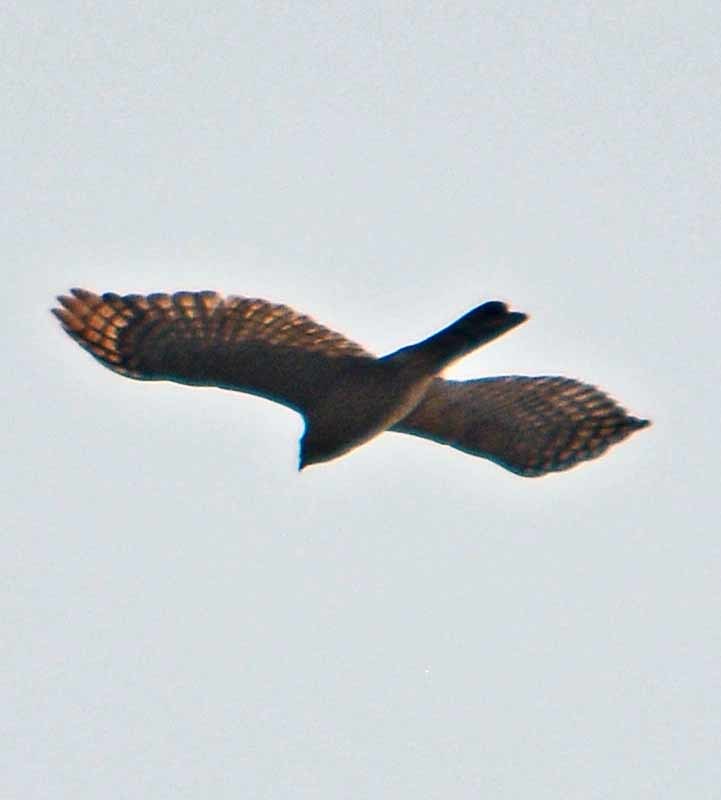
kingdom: Animalia
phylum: Chordata
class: Aves
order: Accipitriformes
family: Accipitridae
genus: Accipiter
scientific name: Accipiter striatus
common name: Sharp-shinned hawk
